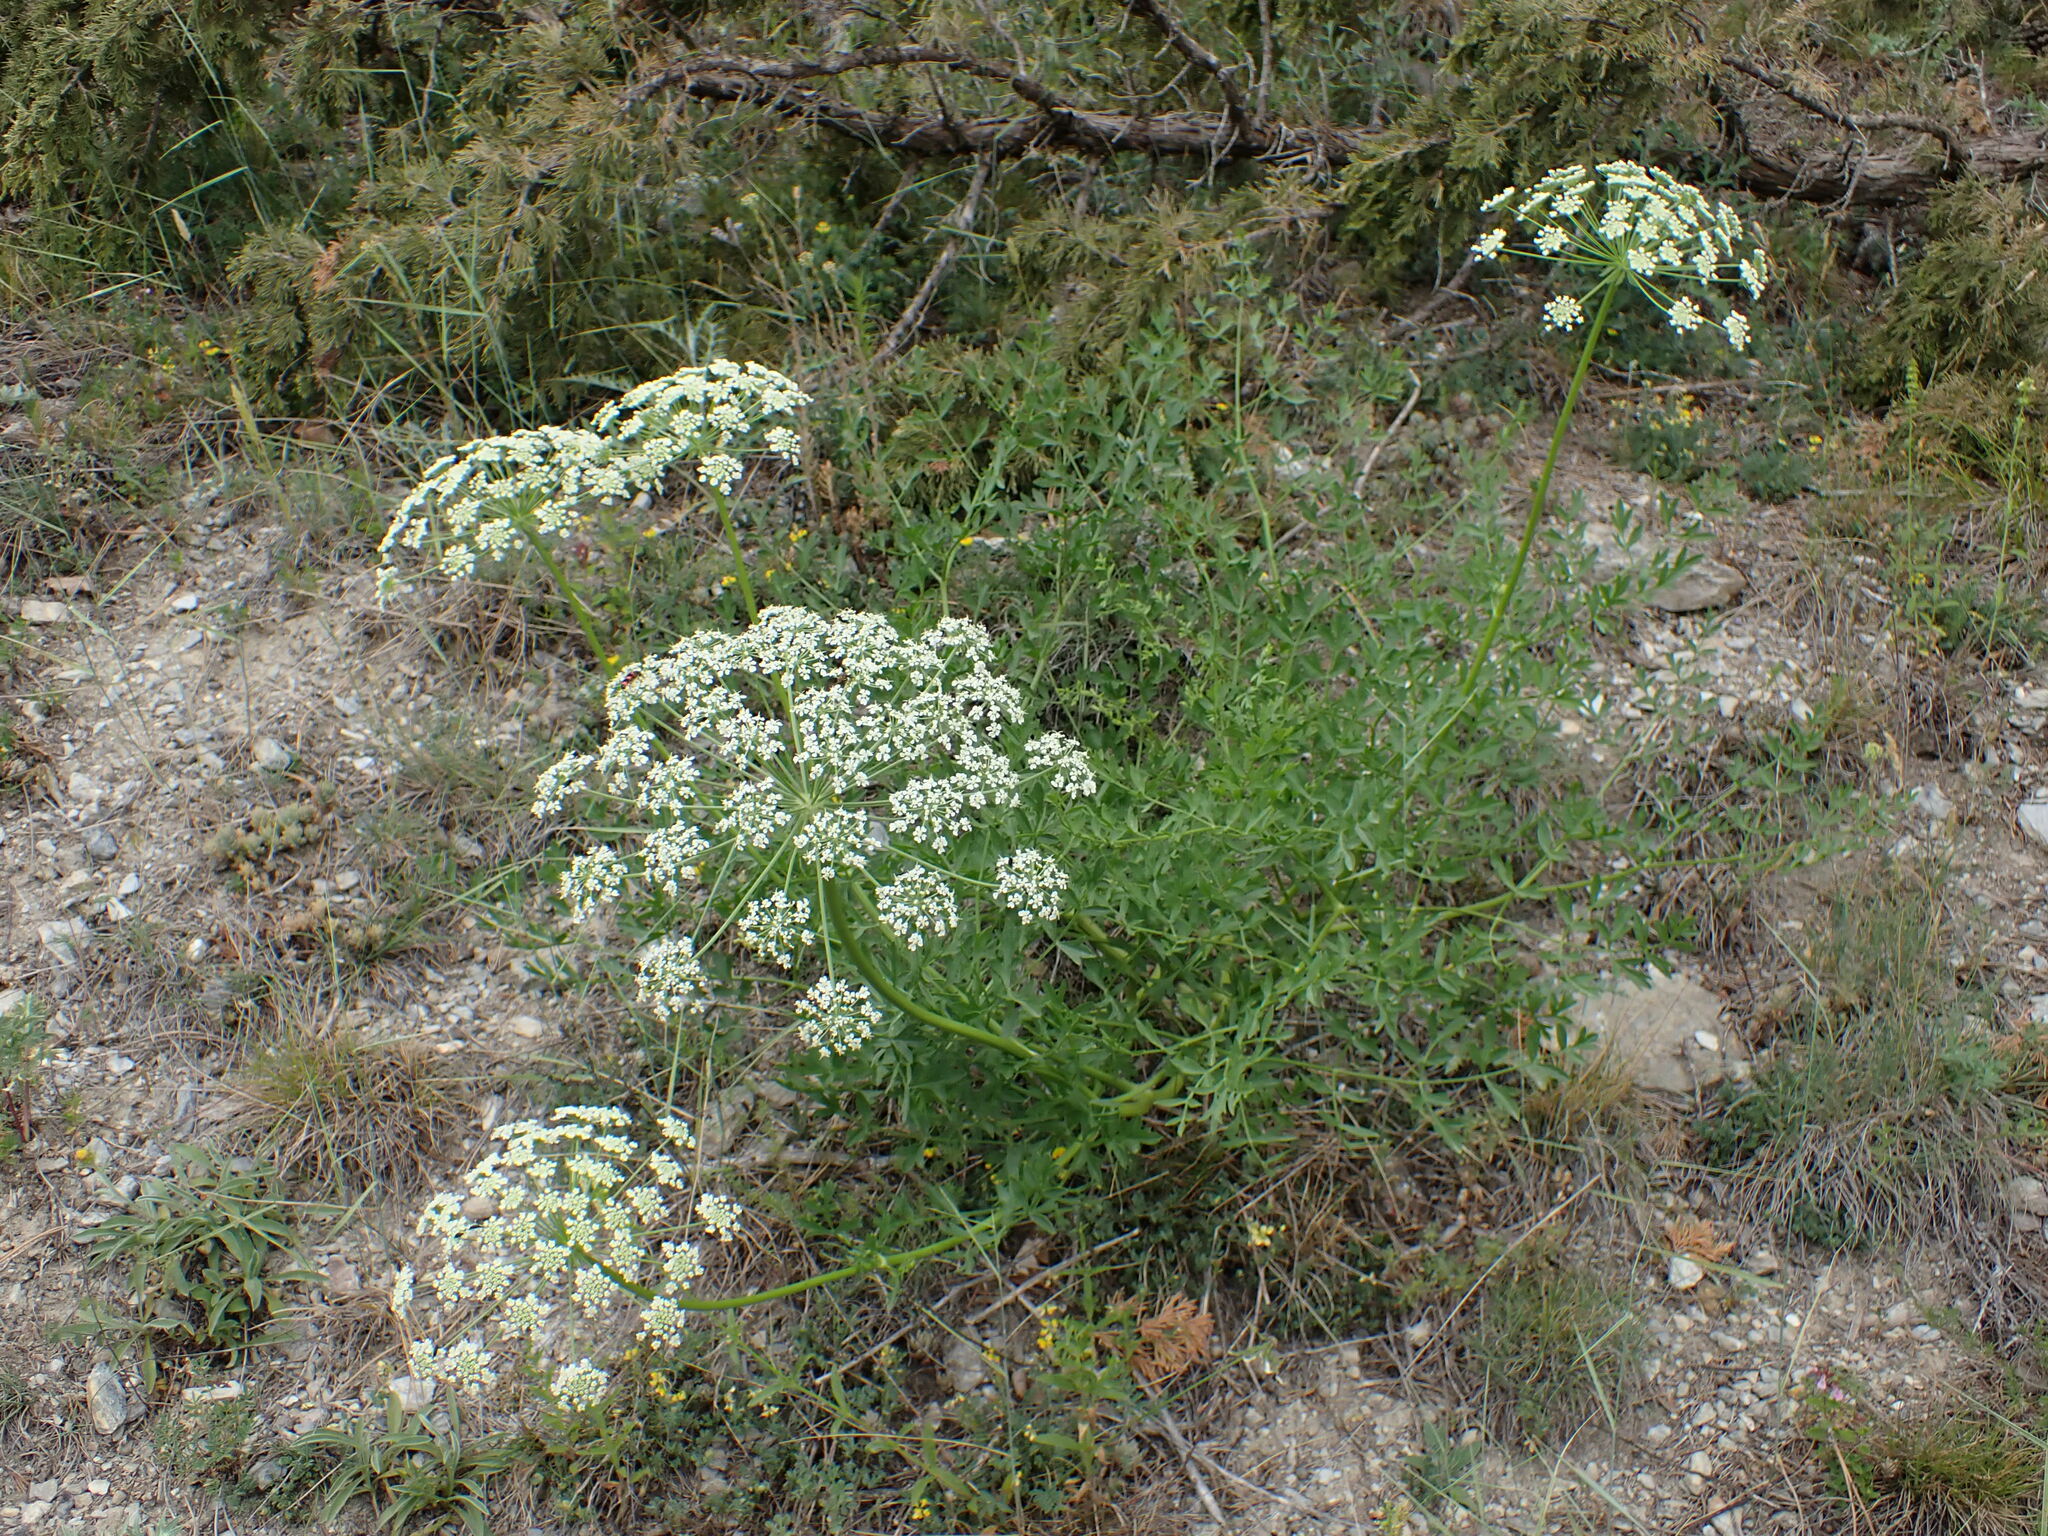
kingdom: Plantae
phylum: Tracheophyta
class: Magnoliopsida
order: Apiales
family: Apiaceae
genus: Laserpitium
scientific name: Laserpitium gallicum
